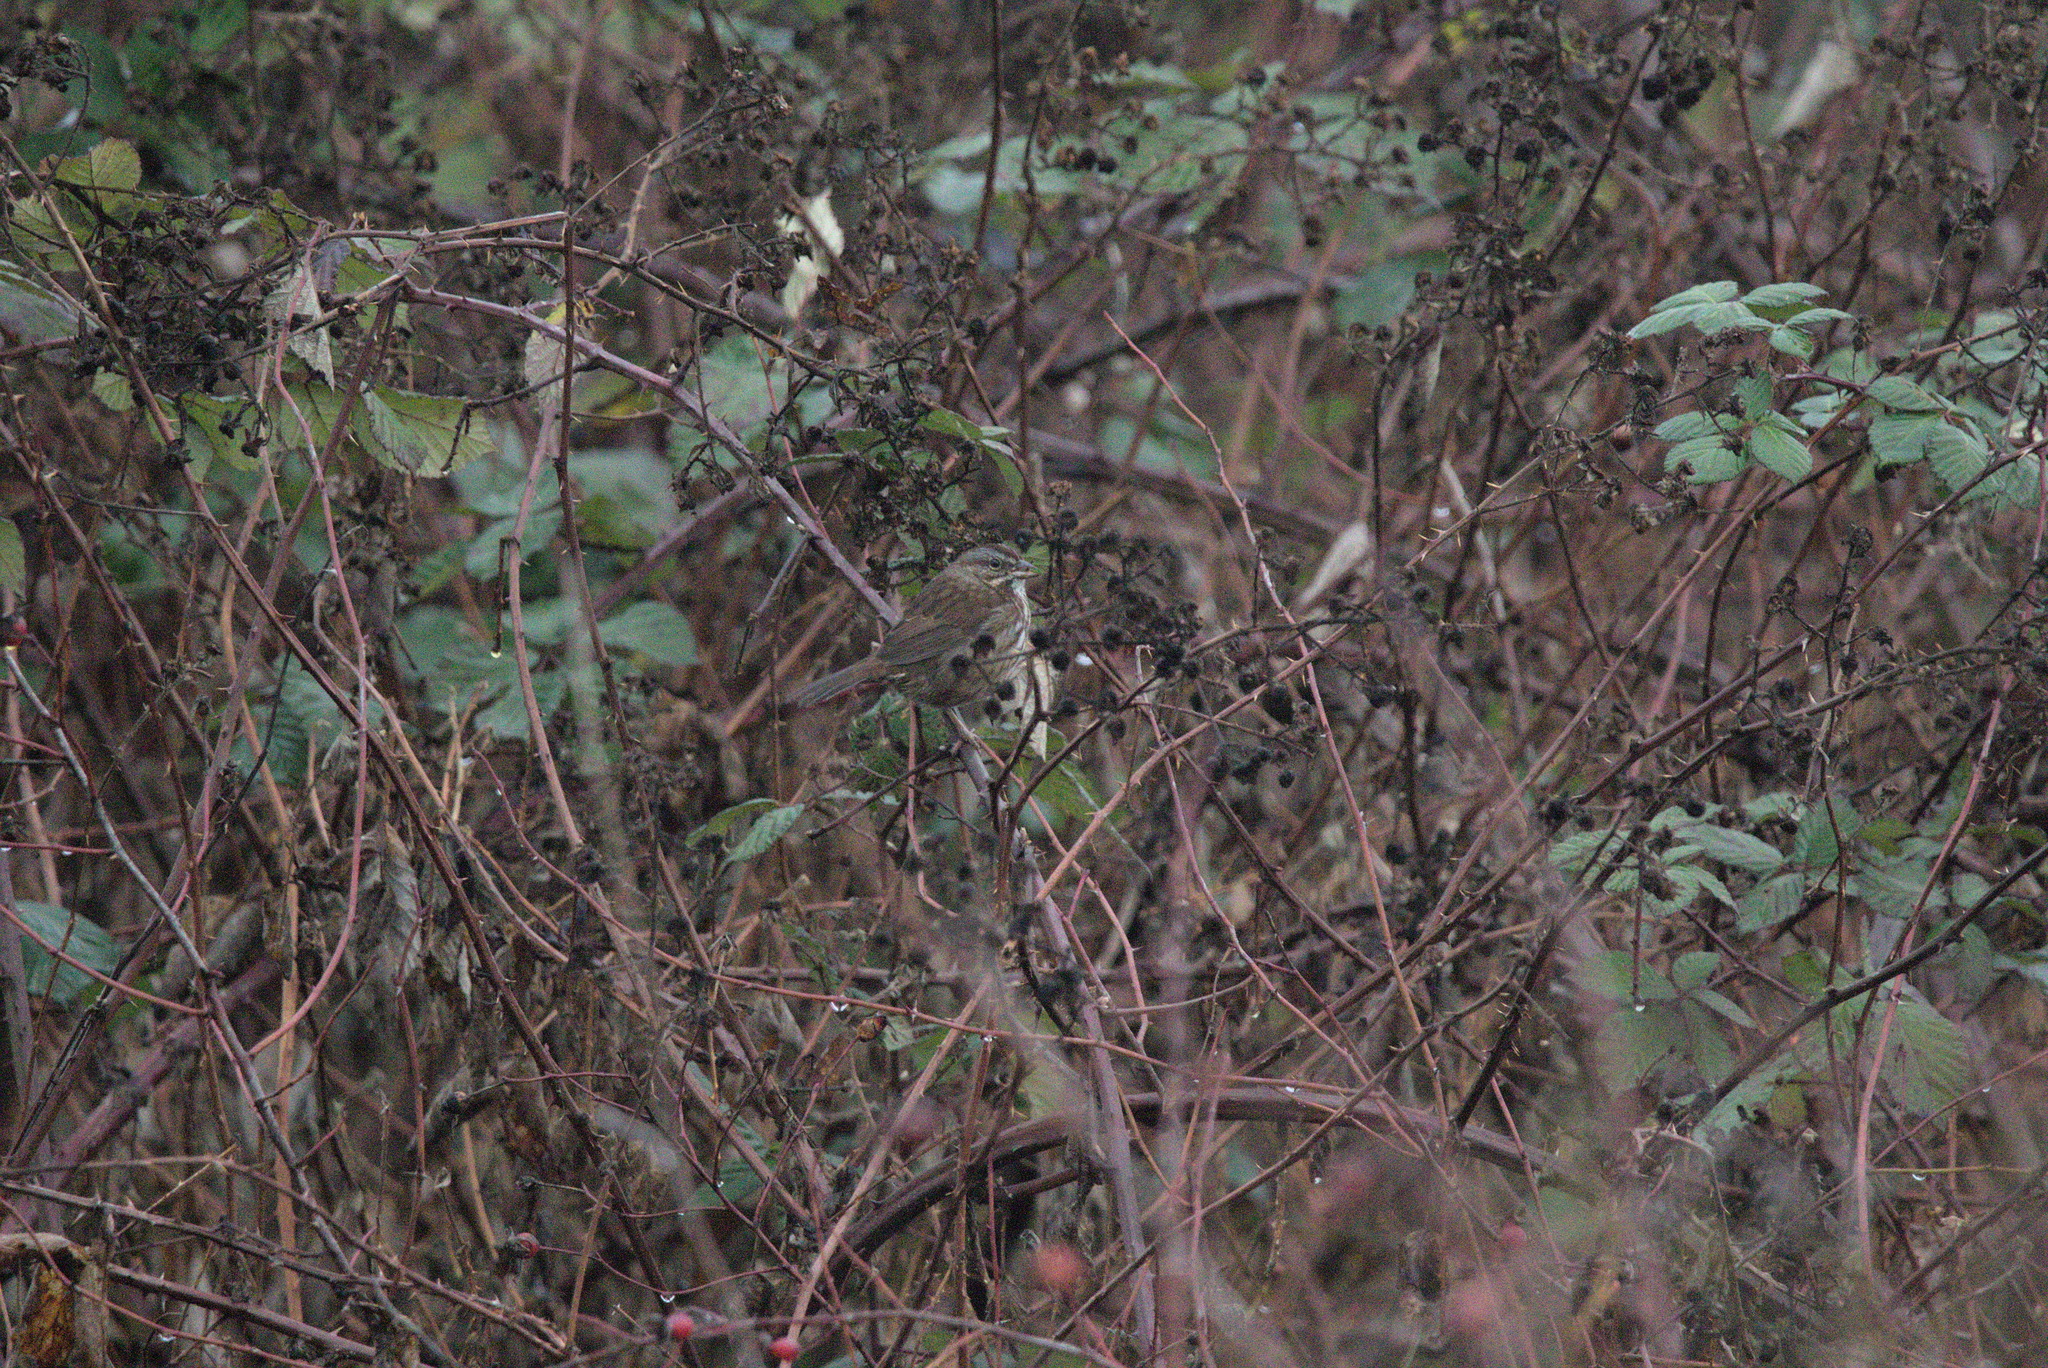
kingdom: Animalia
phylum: Chordata
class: Aves
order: Passeriformes
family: Passerellidae
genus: Melospiza
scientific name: Melospiza melodia
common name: Song sparrow
